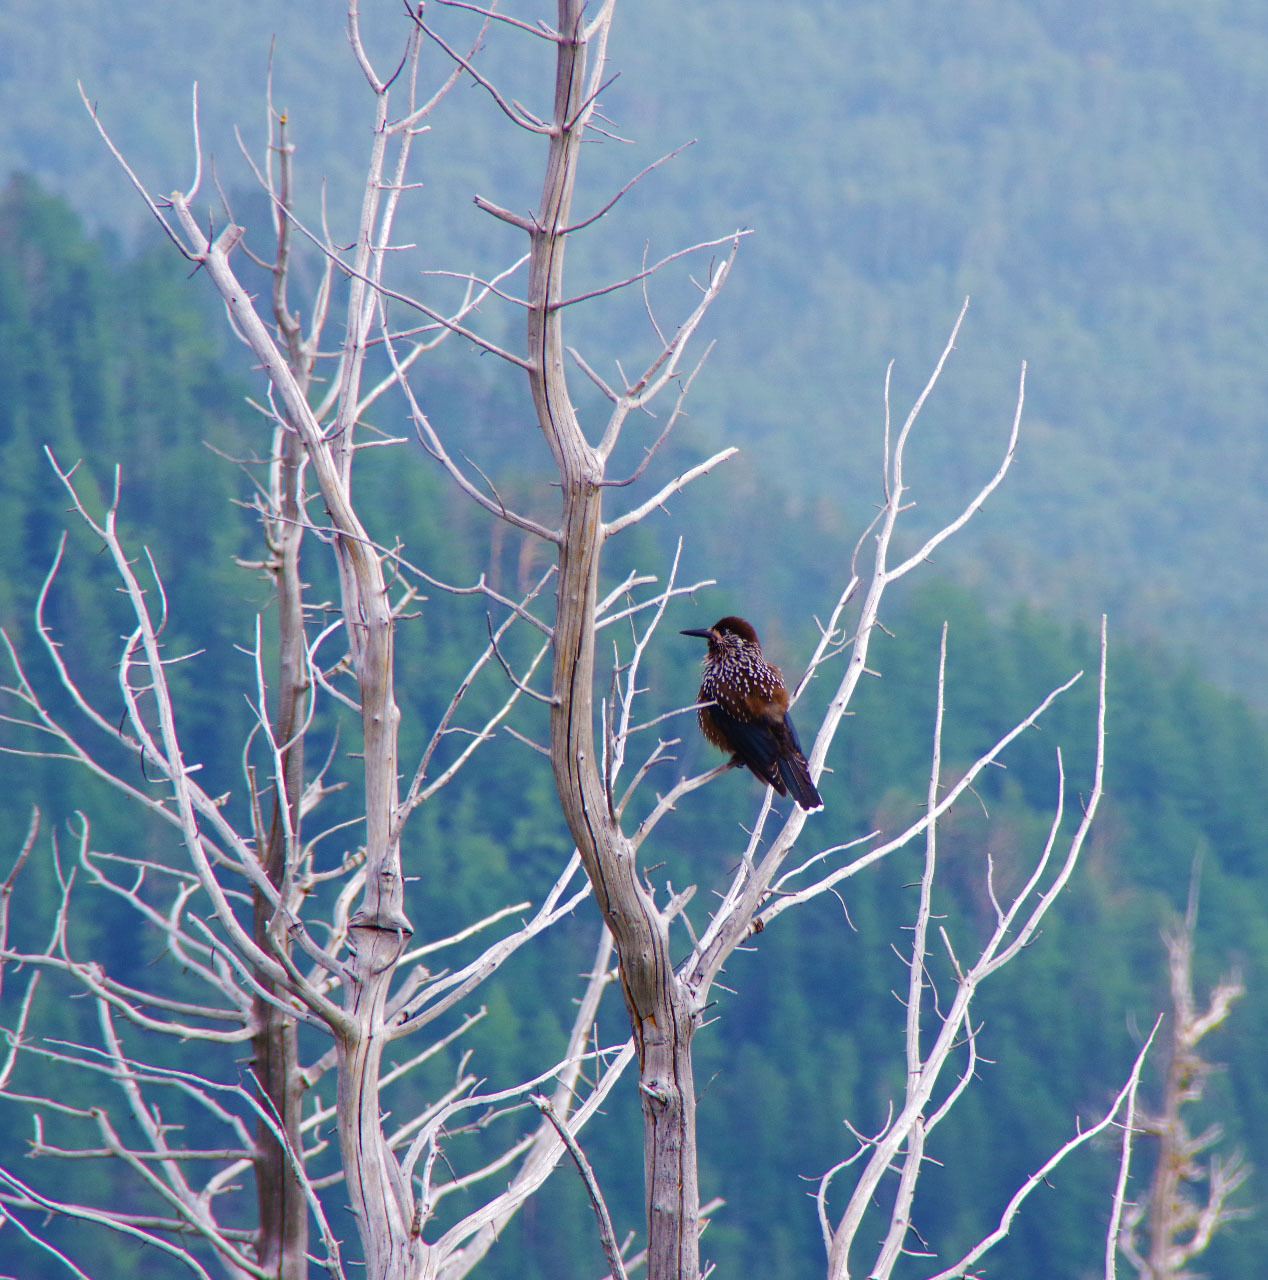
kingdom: Animalia
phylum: Chordata
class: Aves
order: Passeriformes
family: Corvidae
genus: Nucifraga
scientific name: Nucifraga caryocatactes
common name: Spotted nutcracker
